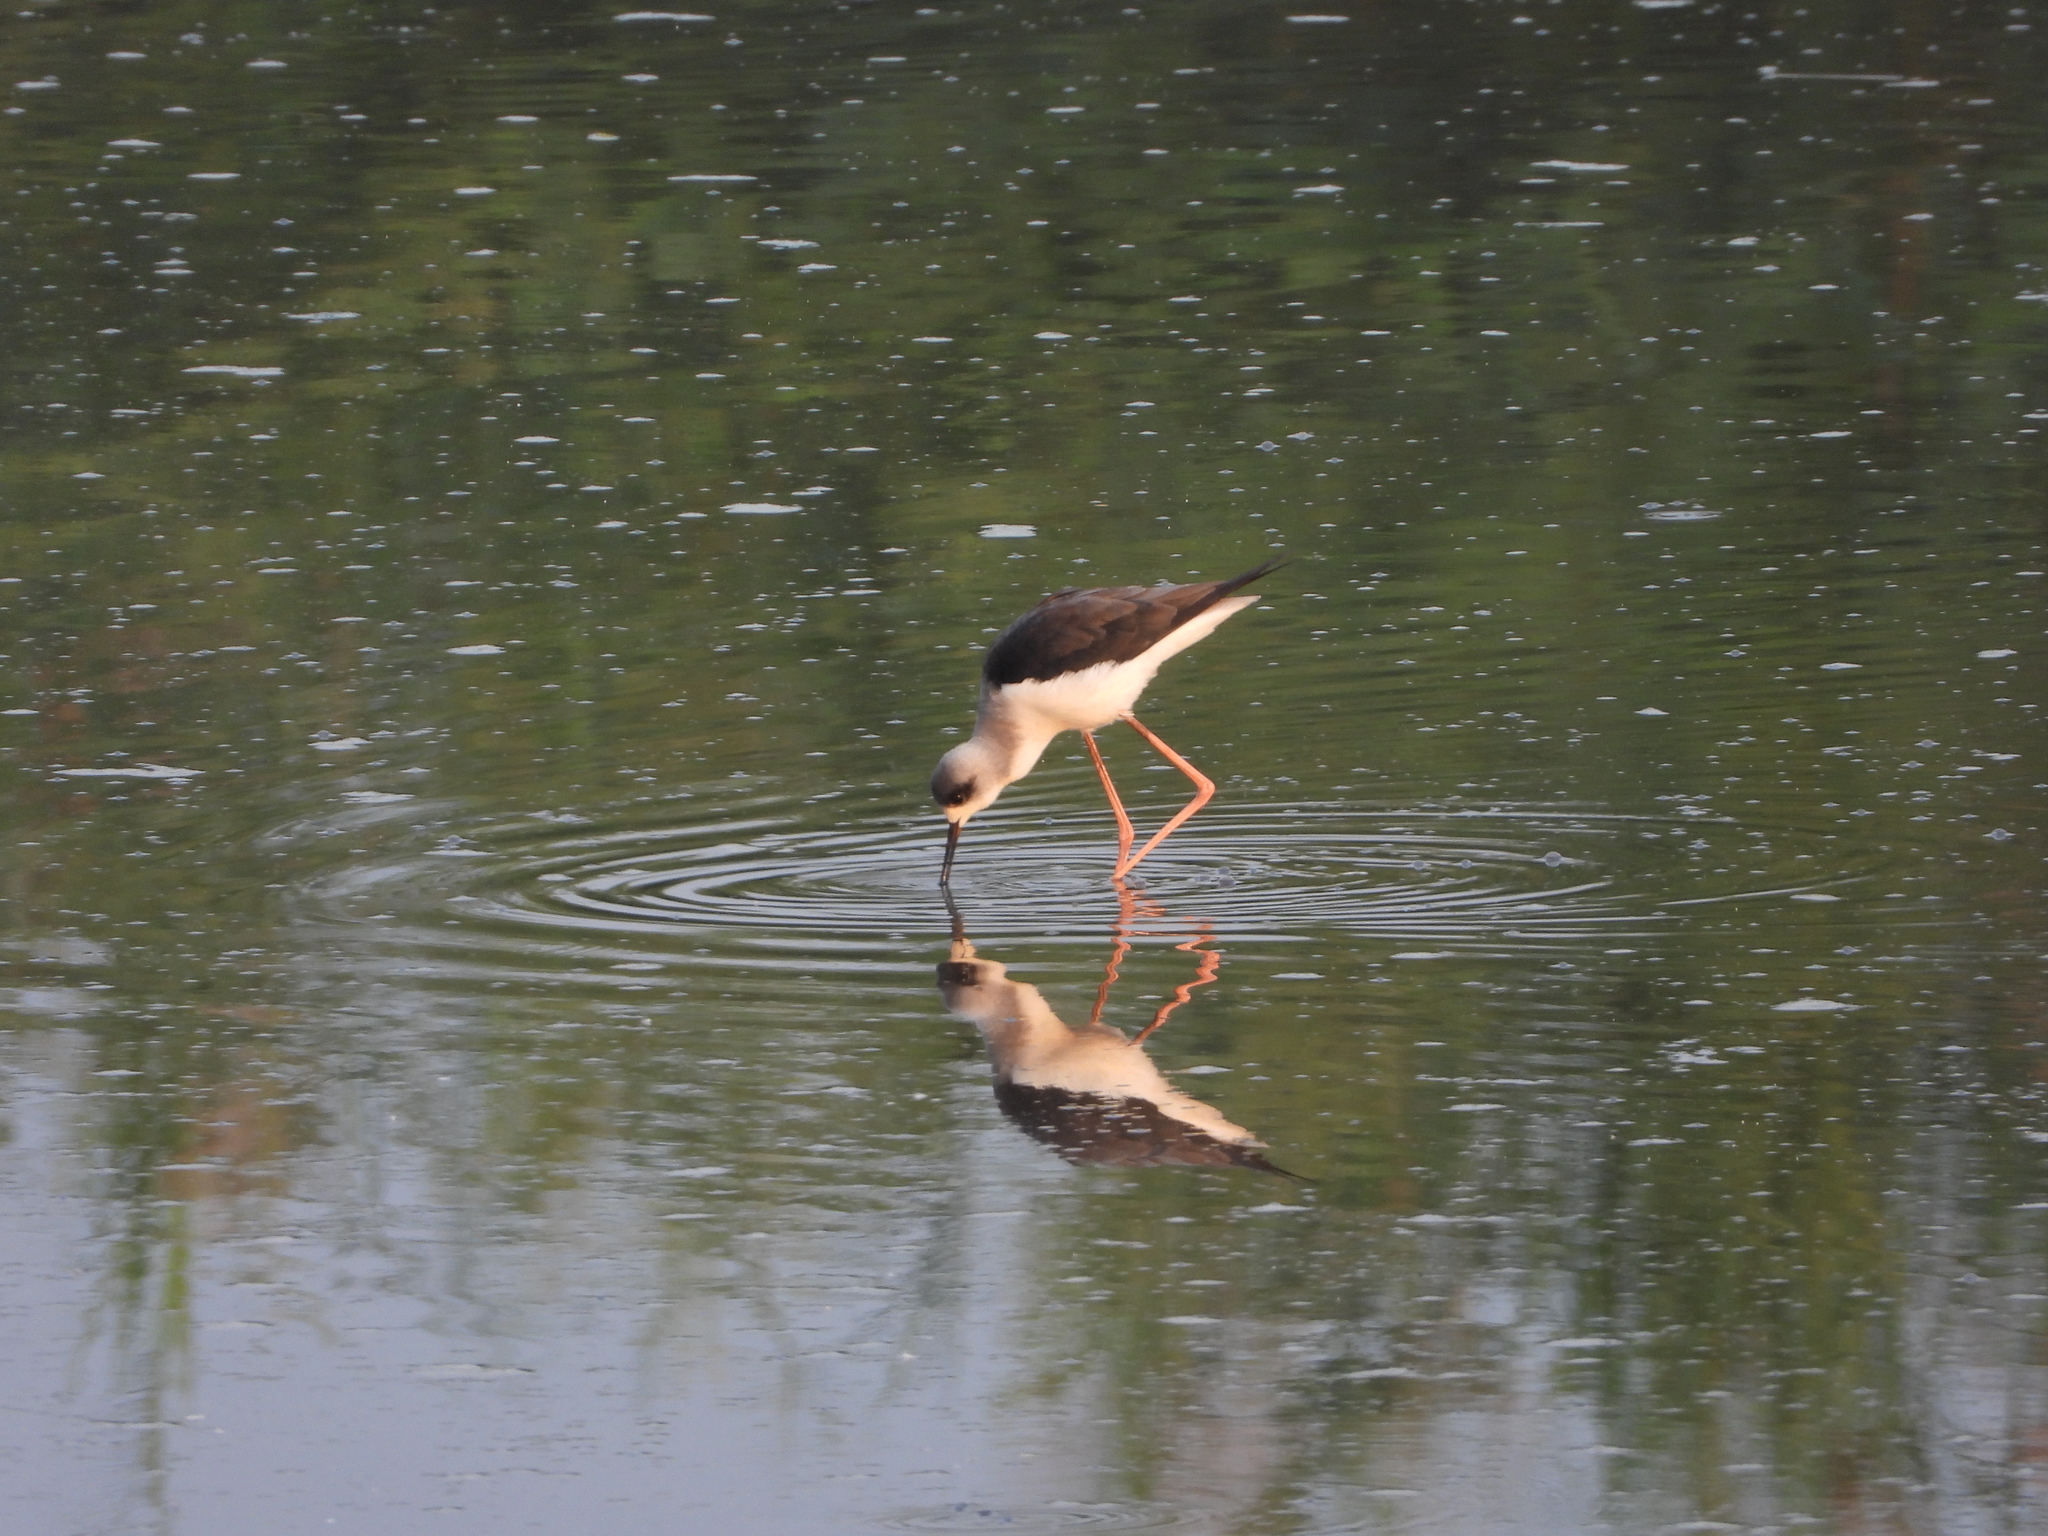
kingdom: Animalia
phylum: Chordata
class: Aves
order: Charadriiformes
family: Recurvirostridae
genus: Himantopus
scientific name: Himantopus himantopus
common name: Black-winged stilt
